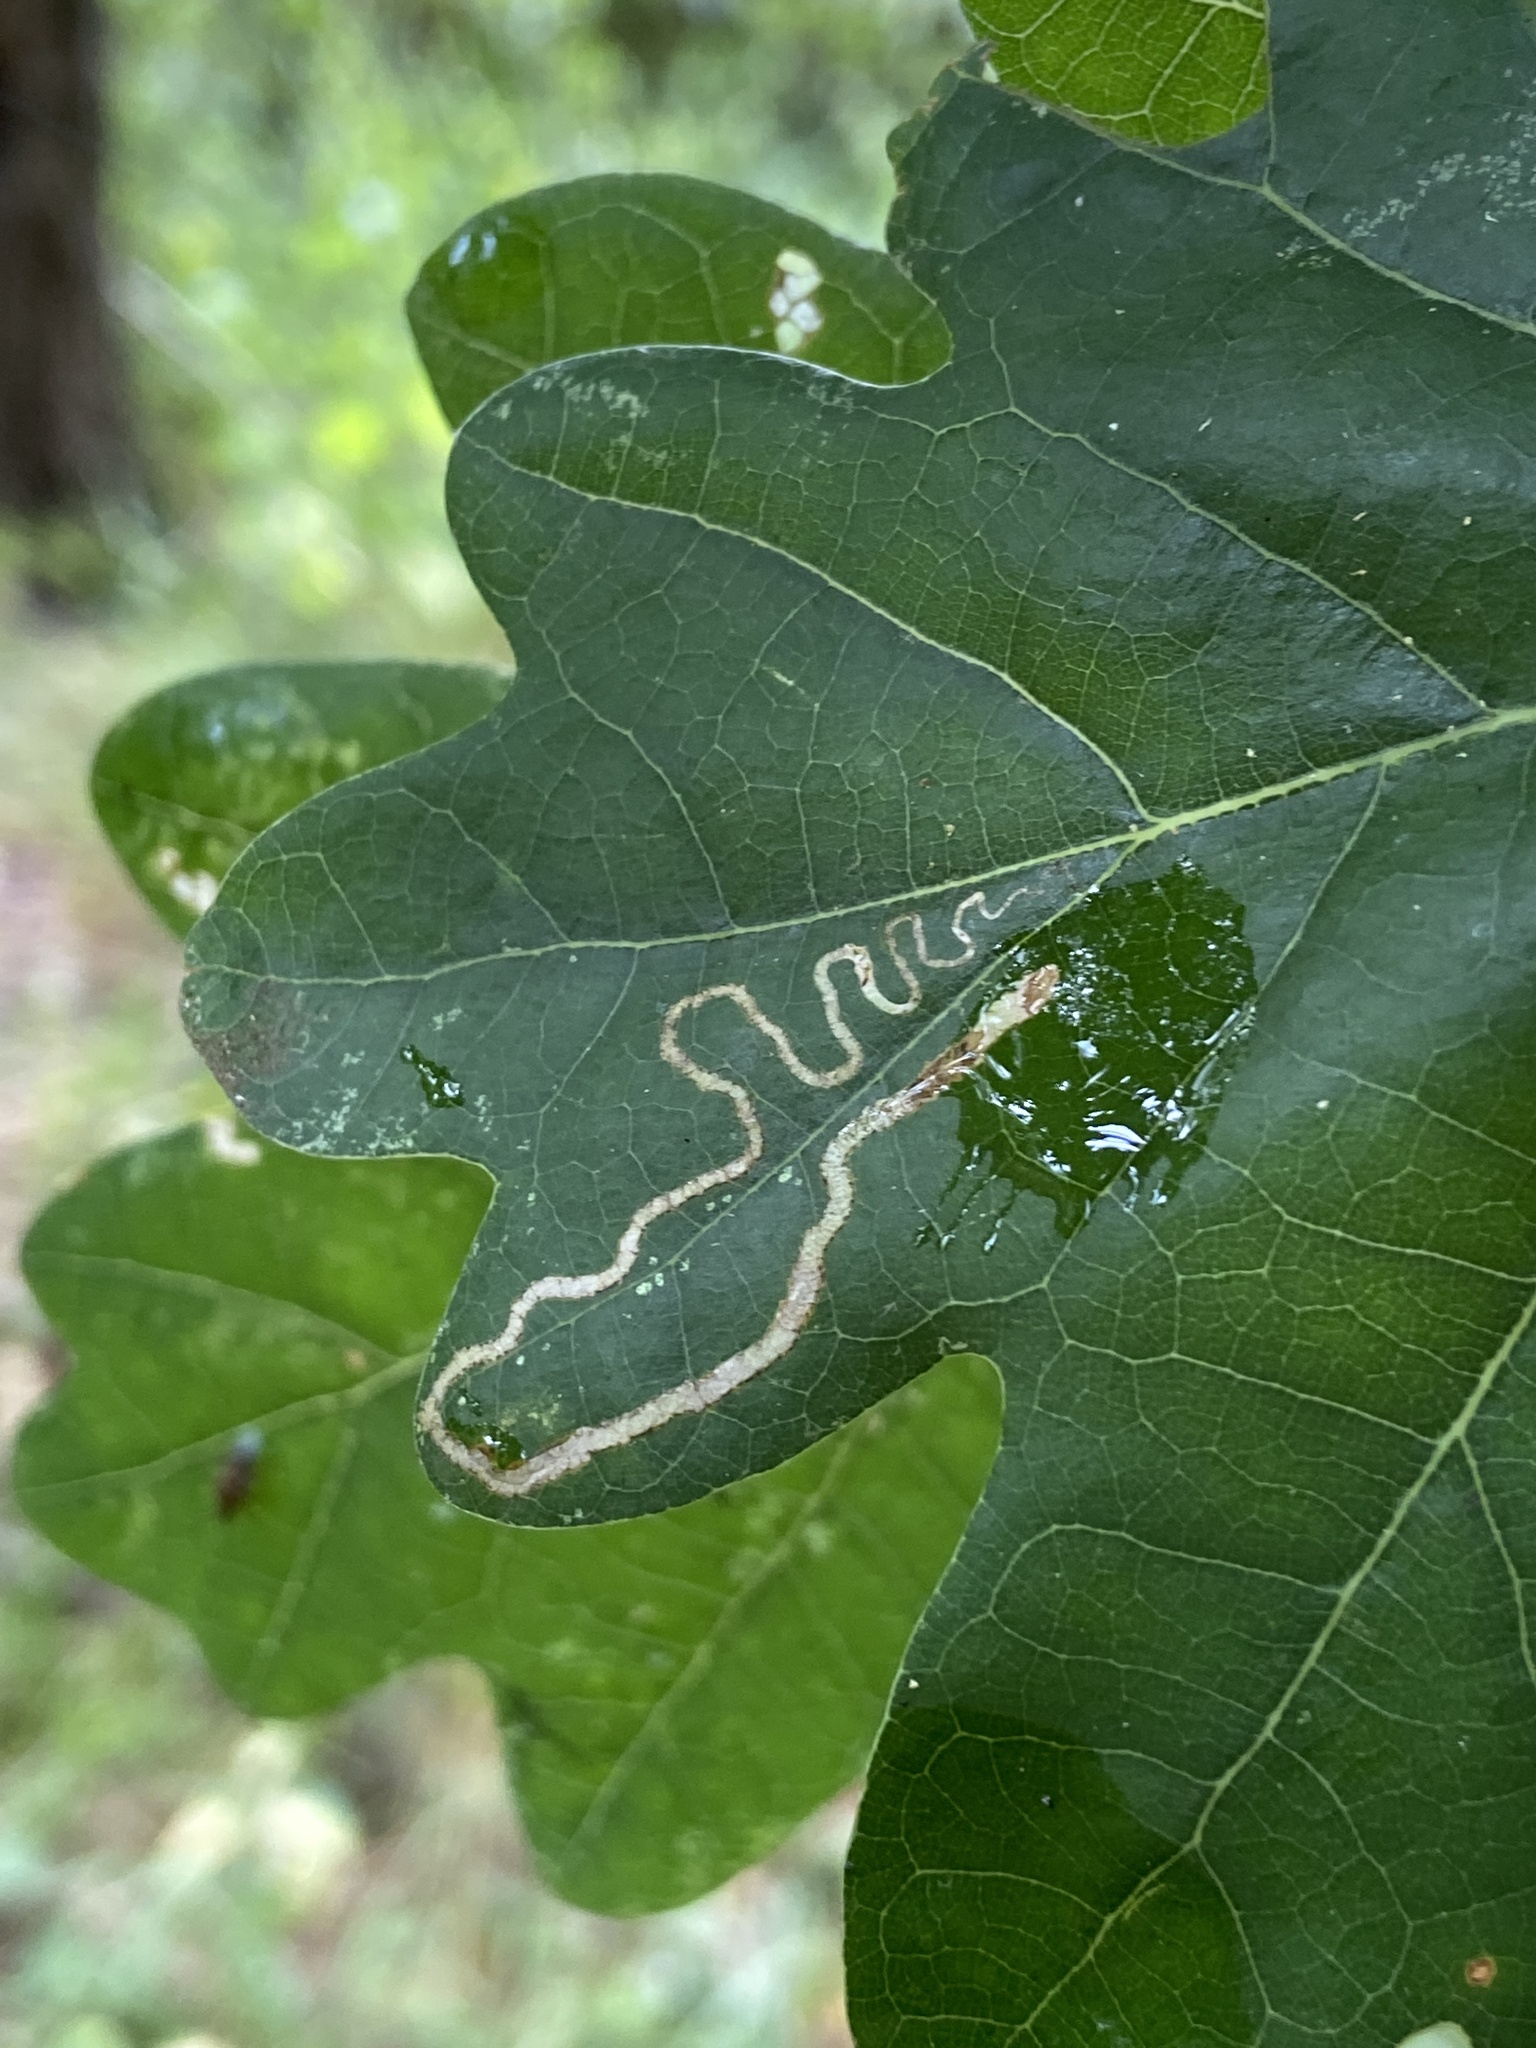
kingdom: Animalia
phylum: Arthropoda
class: Insecta
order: Lepidoptera
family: Nepticulidae
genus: Stigmella
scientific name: Stigmella basiguttella
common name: Base-spotted pigmy
